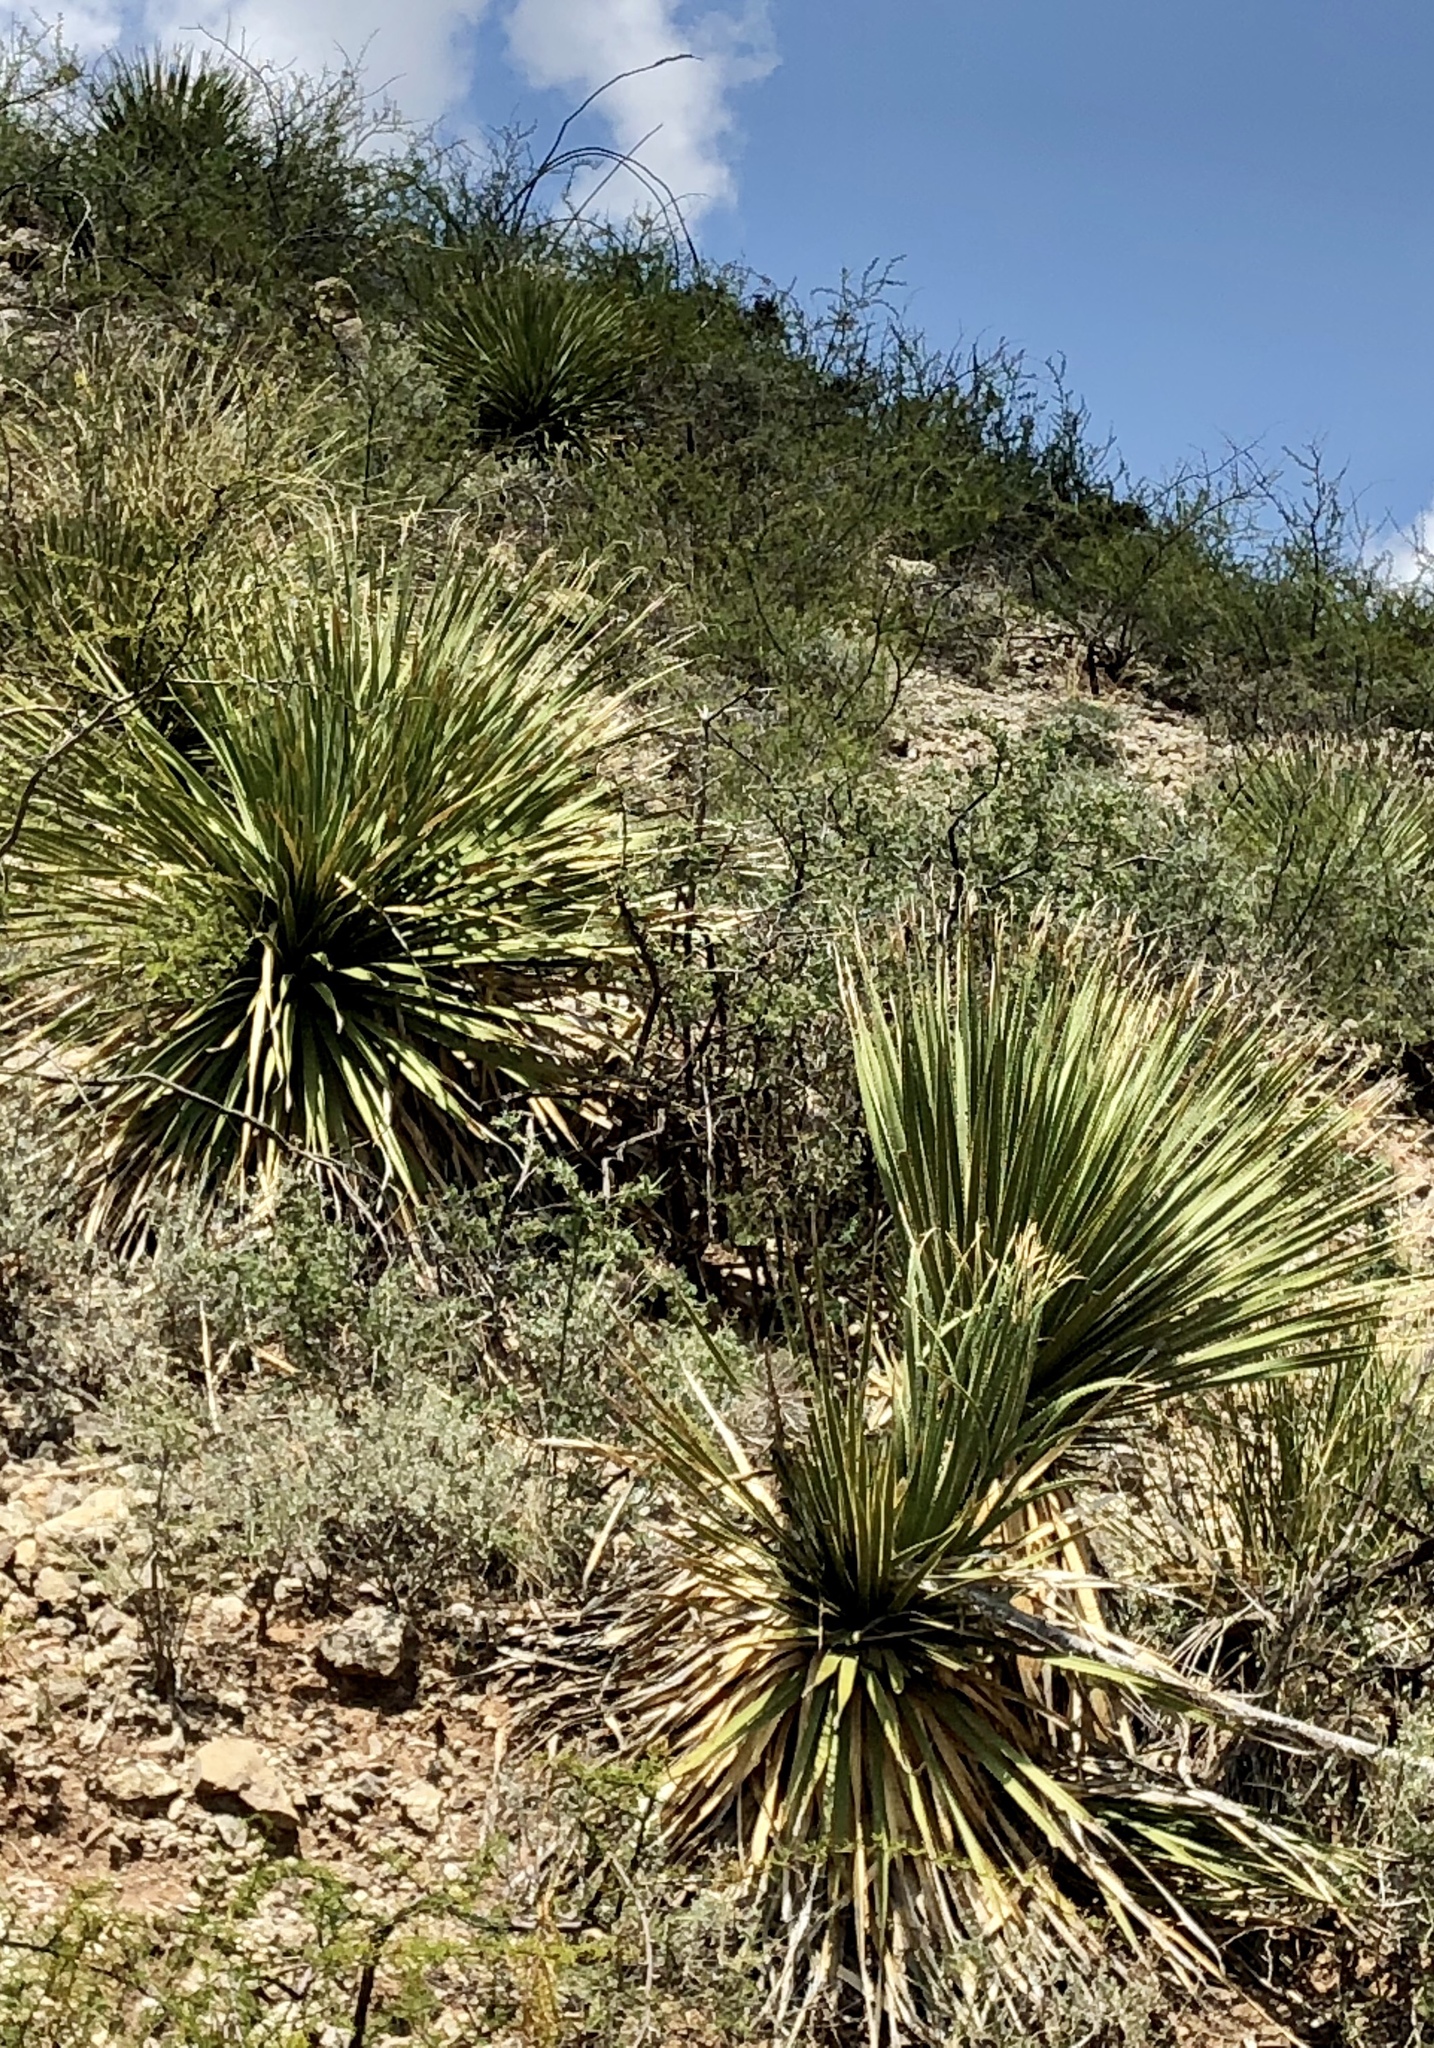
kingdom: Plantae
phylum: Tracheophyta
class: Liliopsida
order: Asparagales
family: Asparagaceae
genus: Dasylirion
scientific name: Dasylirion wheeleri
